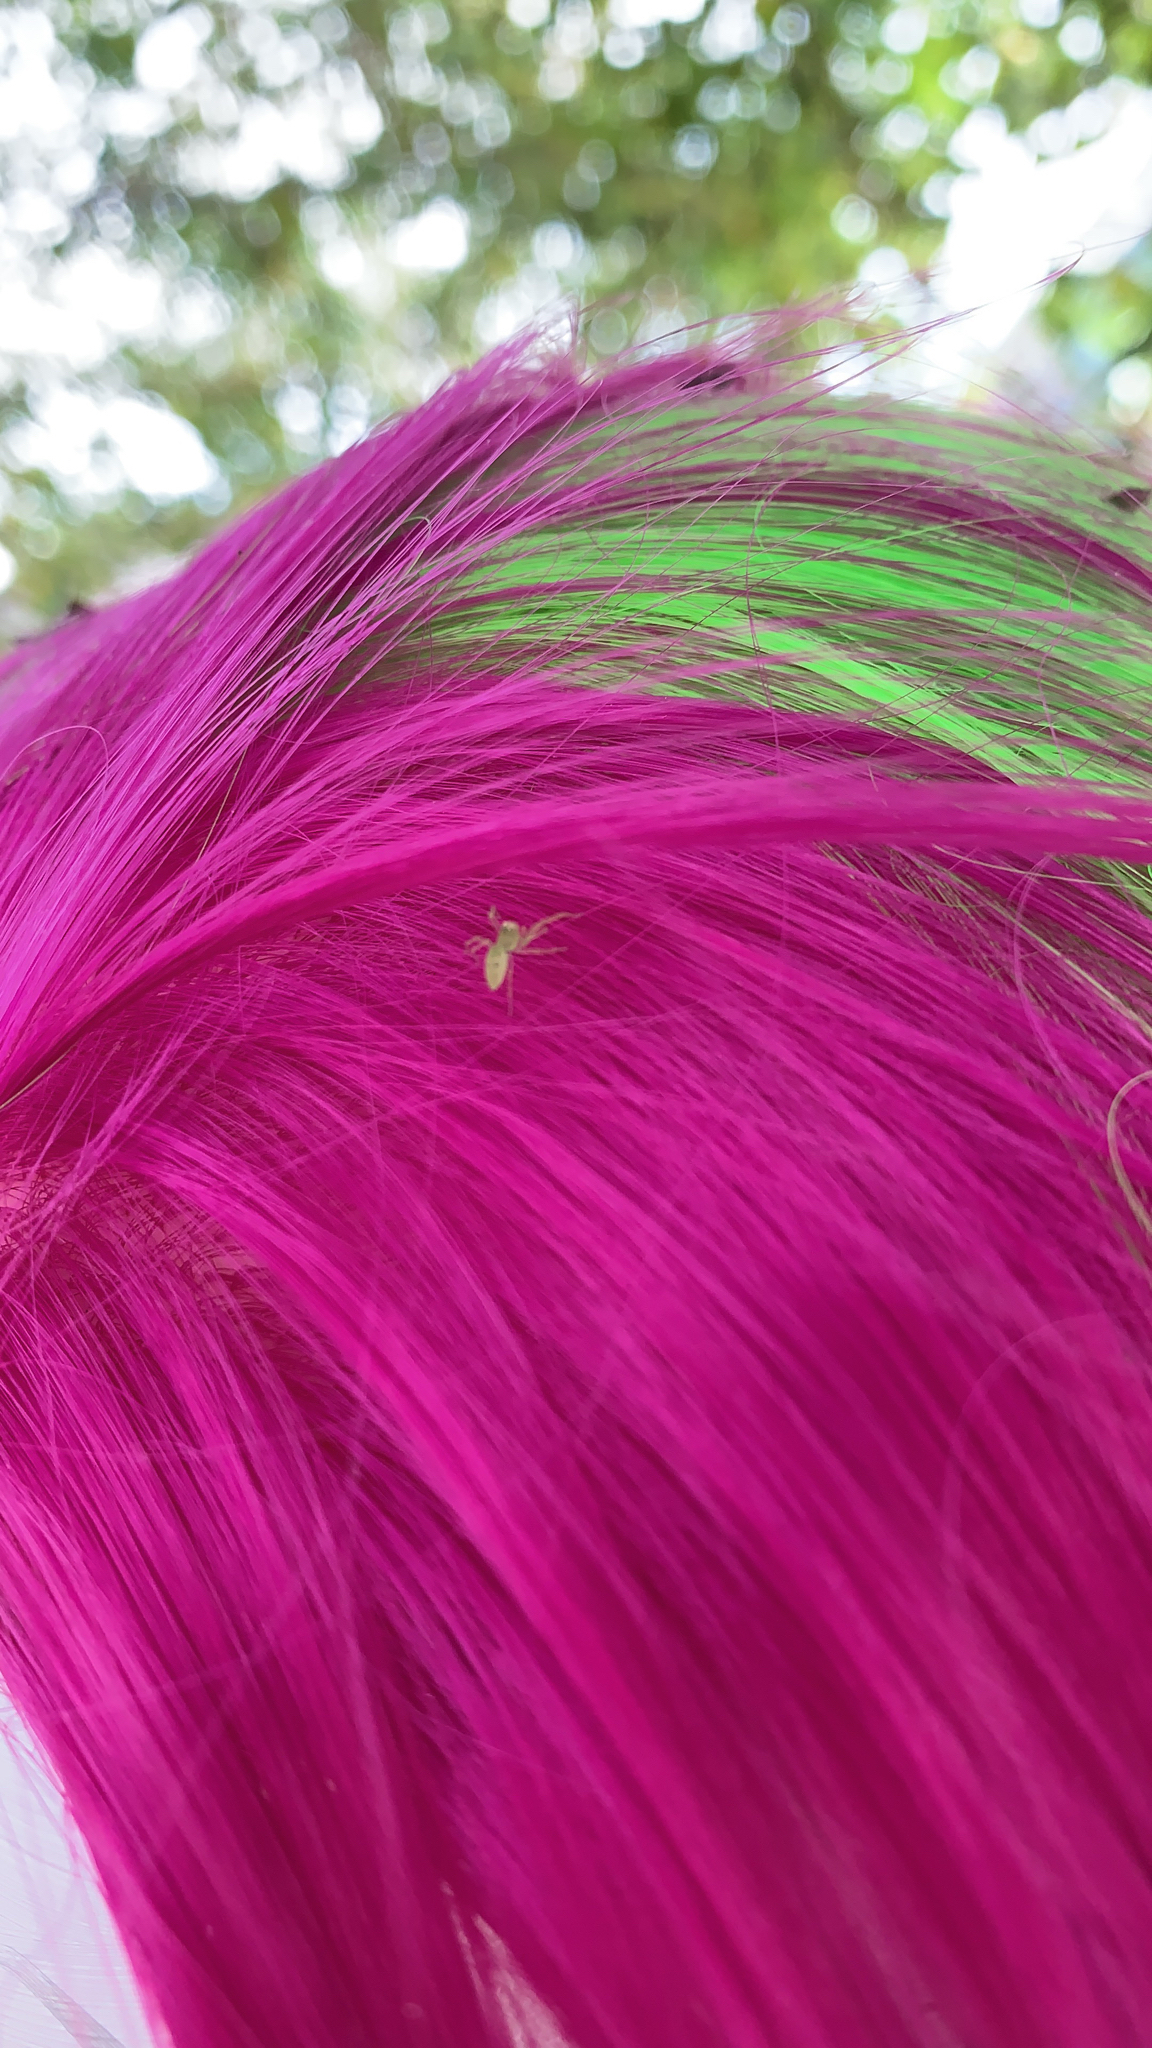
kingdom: Animalia
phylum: Arthropoda
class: Arachnida
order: Araneae
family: Salticidae
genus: Lyssomanes
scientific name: Lyssomanes viridis
